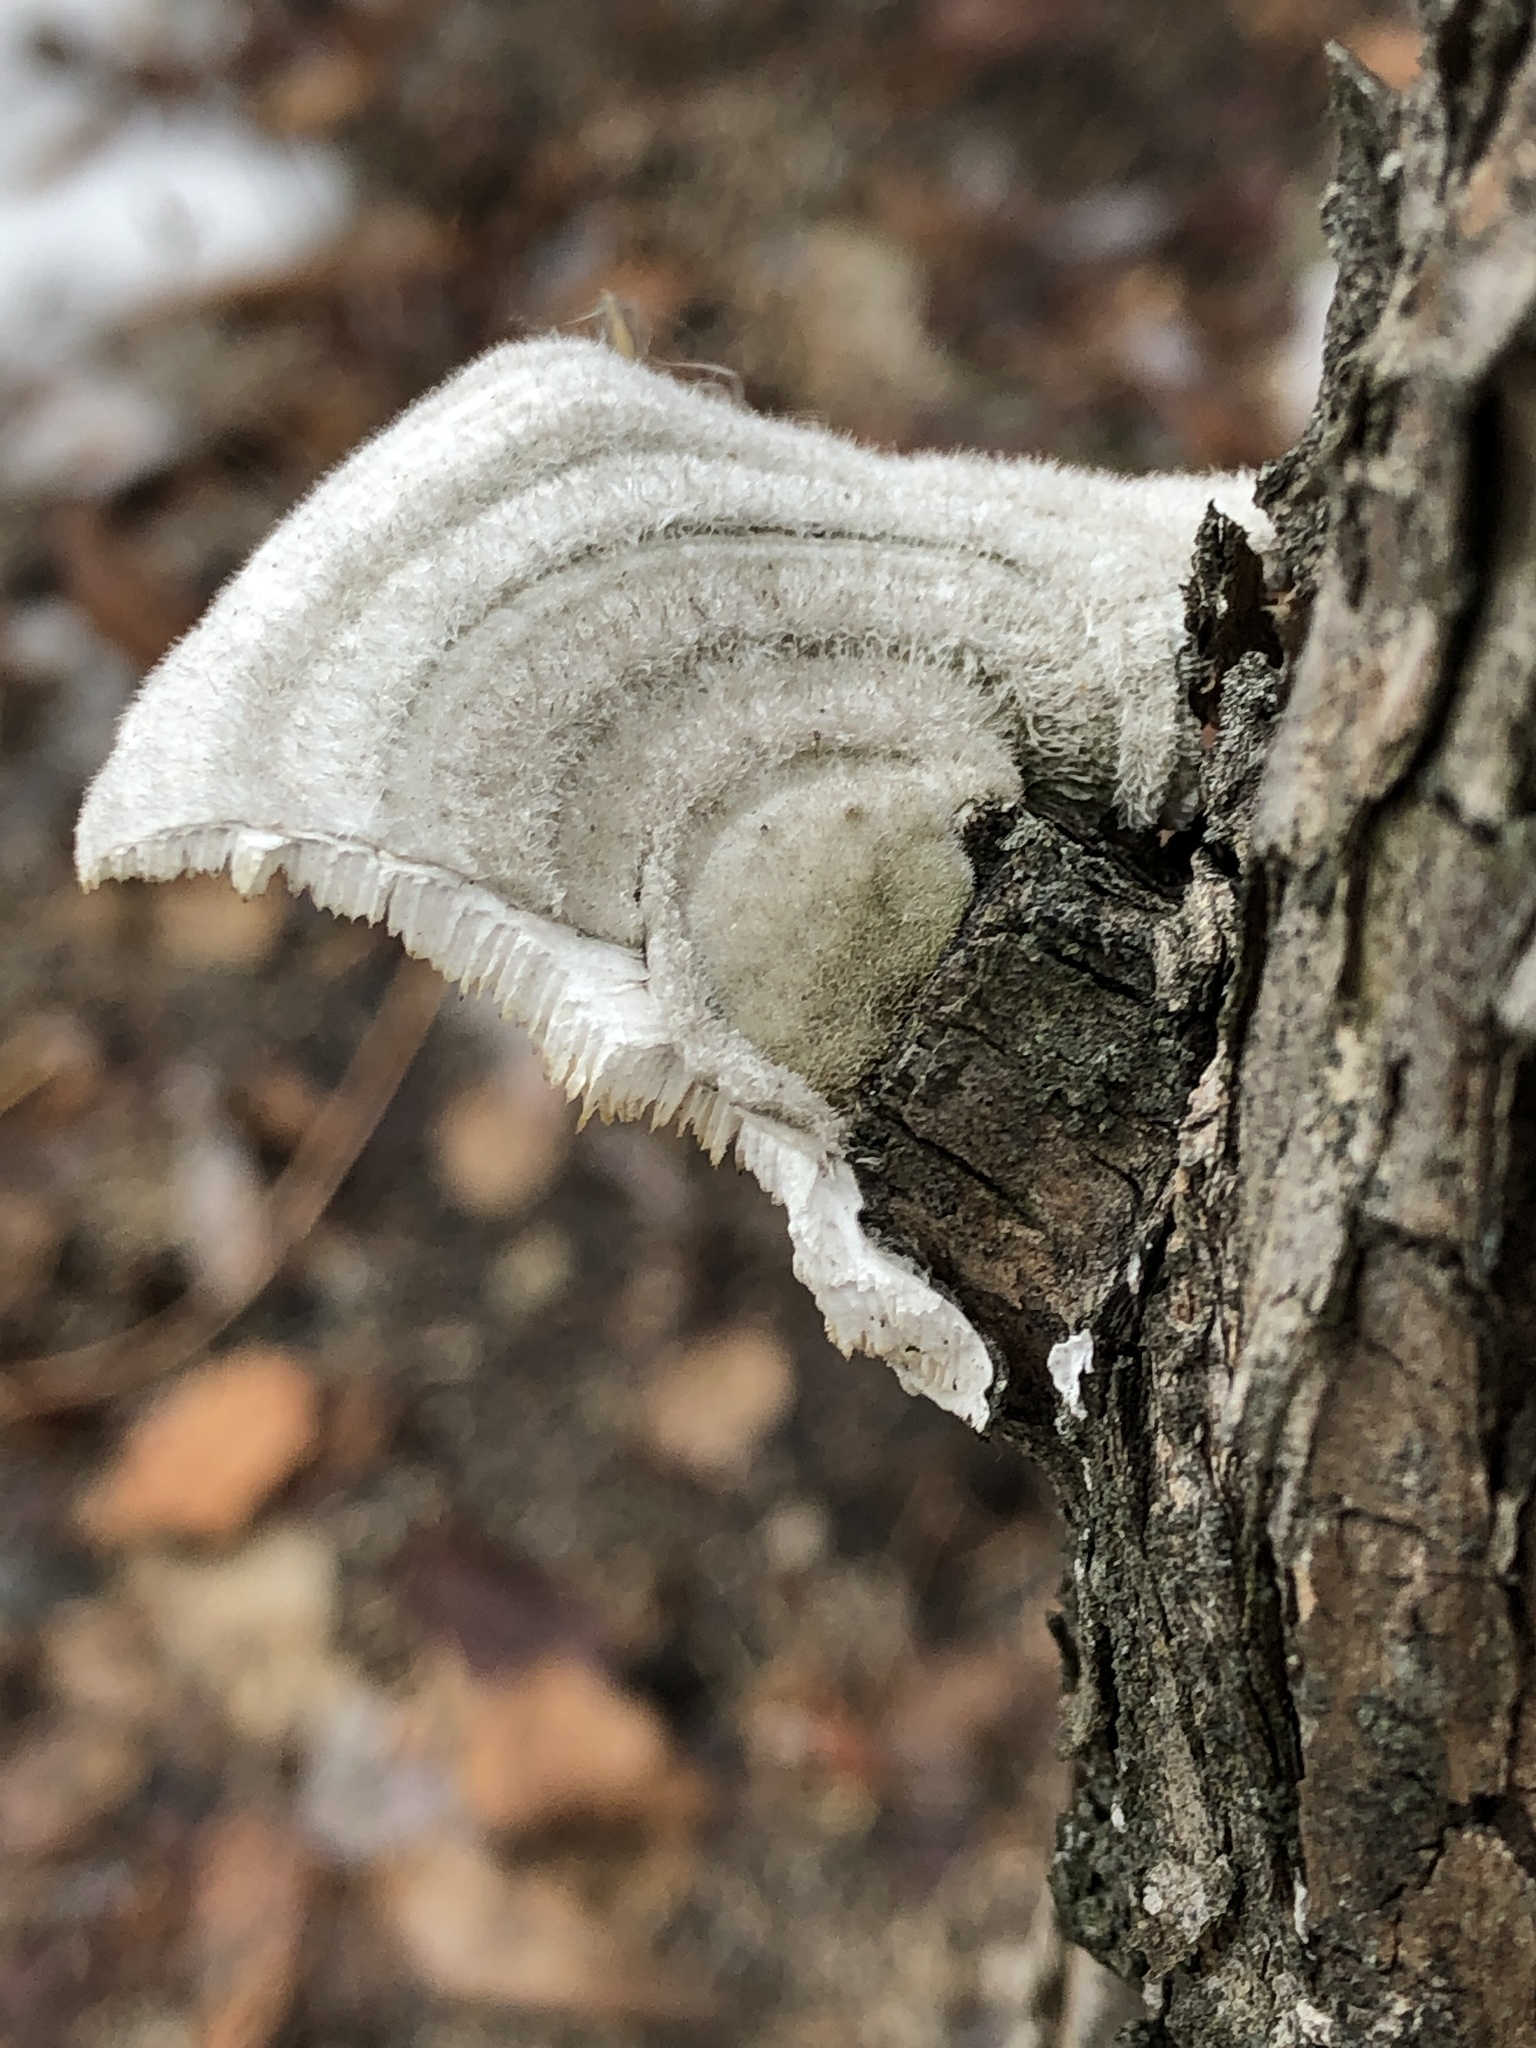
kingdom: Fungi
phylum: Basidiomycota
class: Agaricomycetes
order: Polyporales
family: Polyporaceae
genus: Trametes
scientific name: Trametes hirsuta
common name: Hairy bracket
